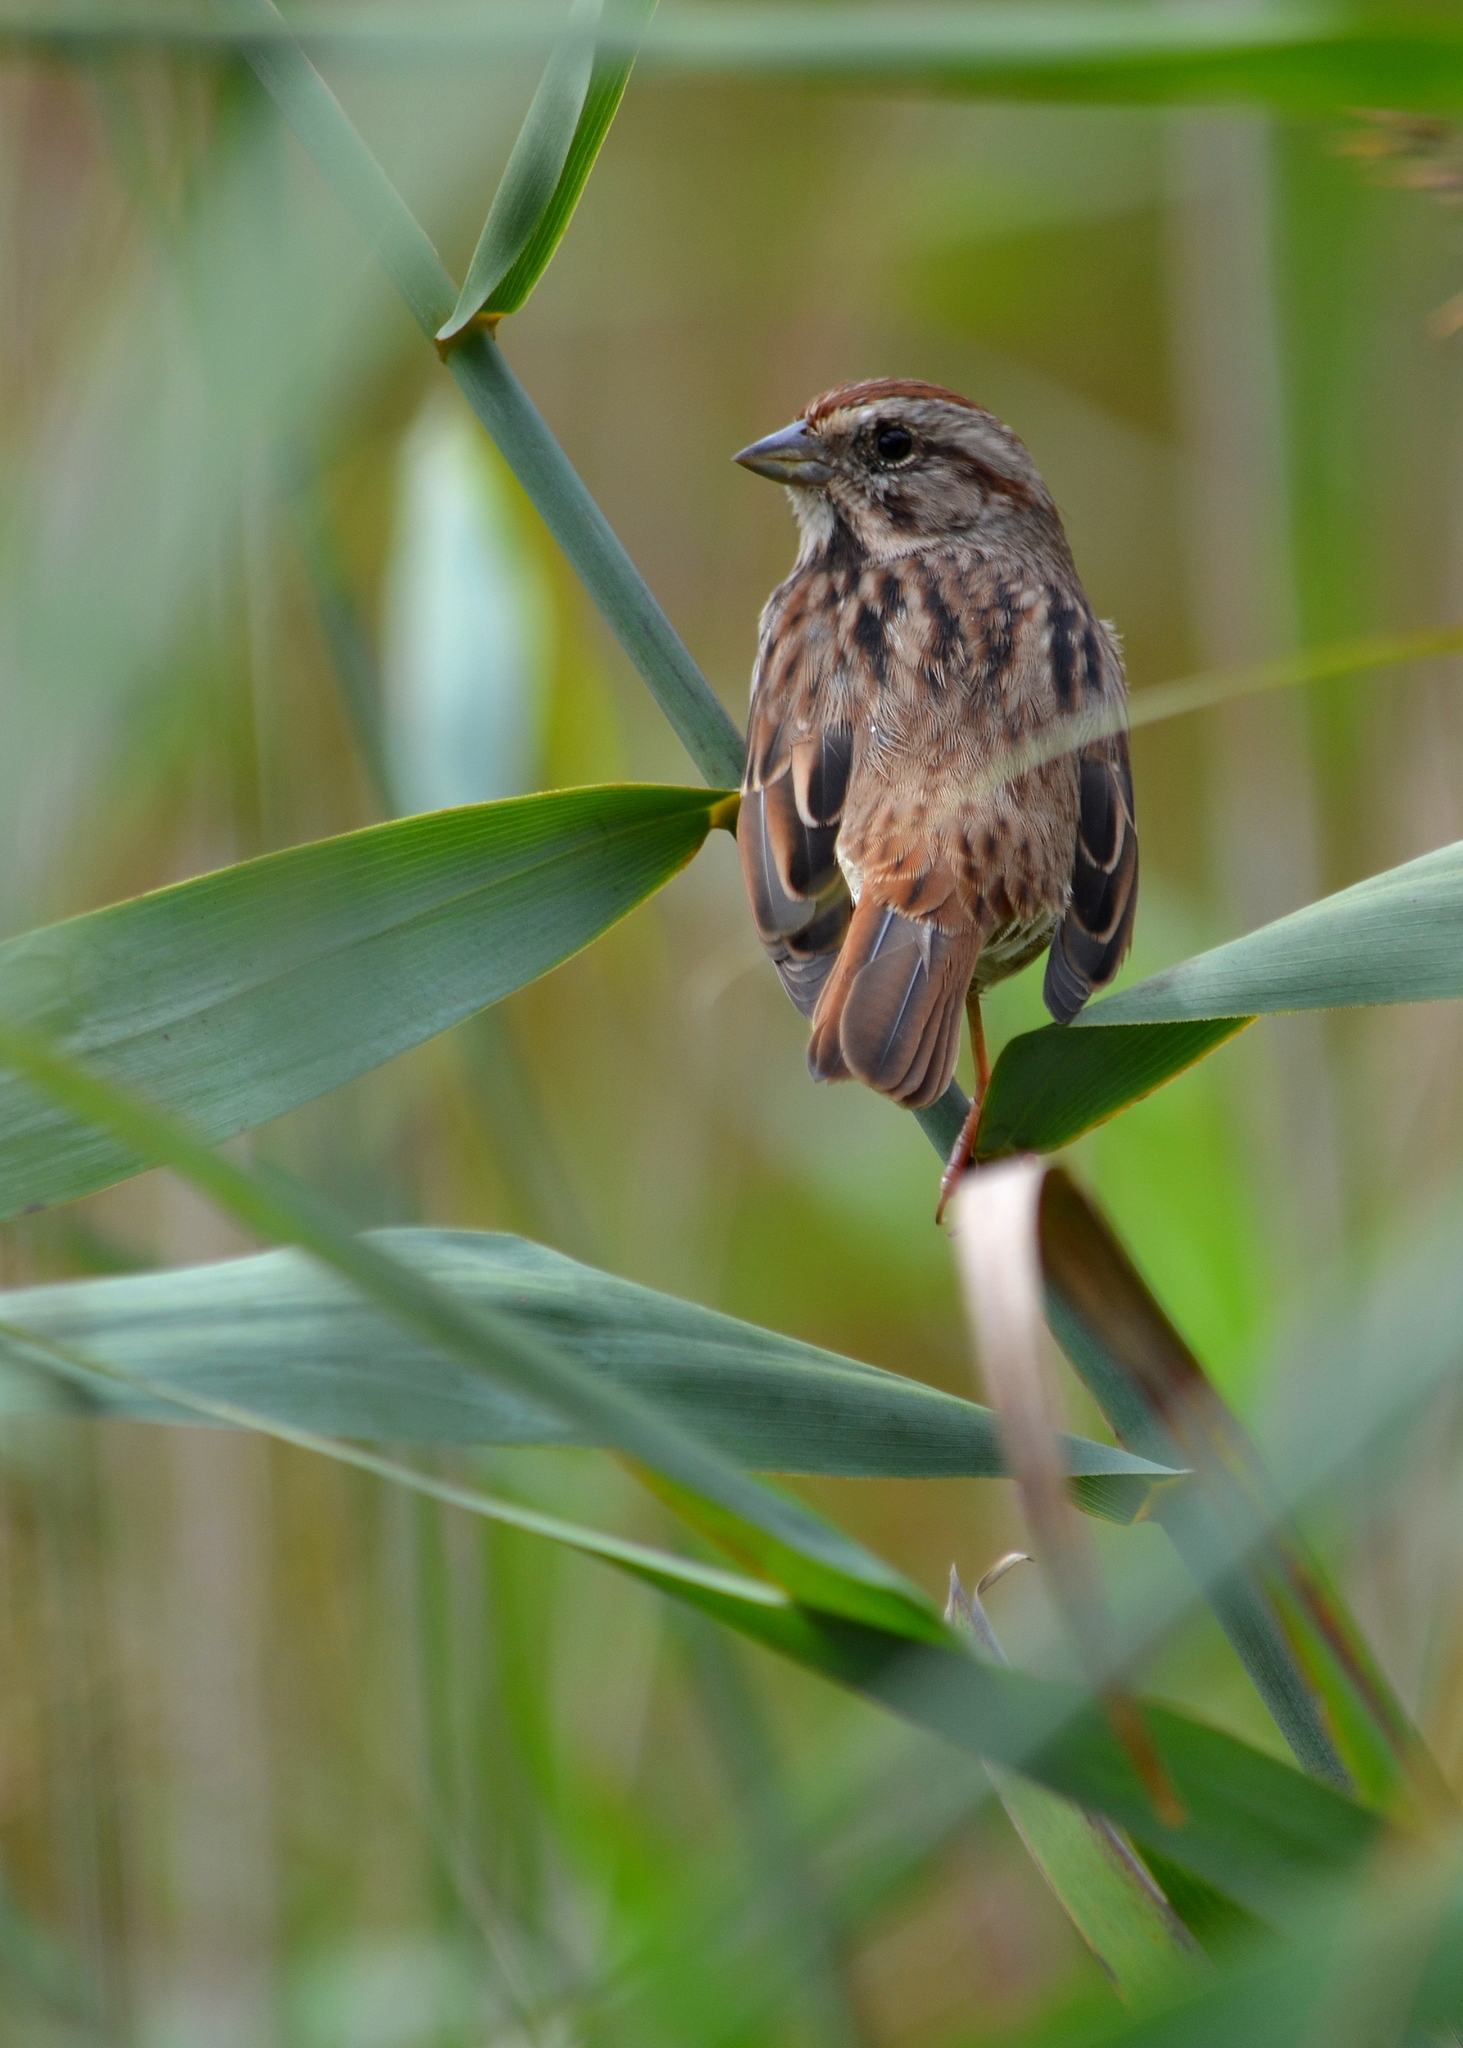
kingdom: Animalia
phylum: Chordata
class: Aves
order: Passeriformes
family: Passerellidae
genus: Melospiza
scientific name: Melospiza melodia
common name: Song sparrow
